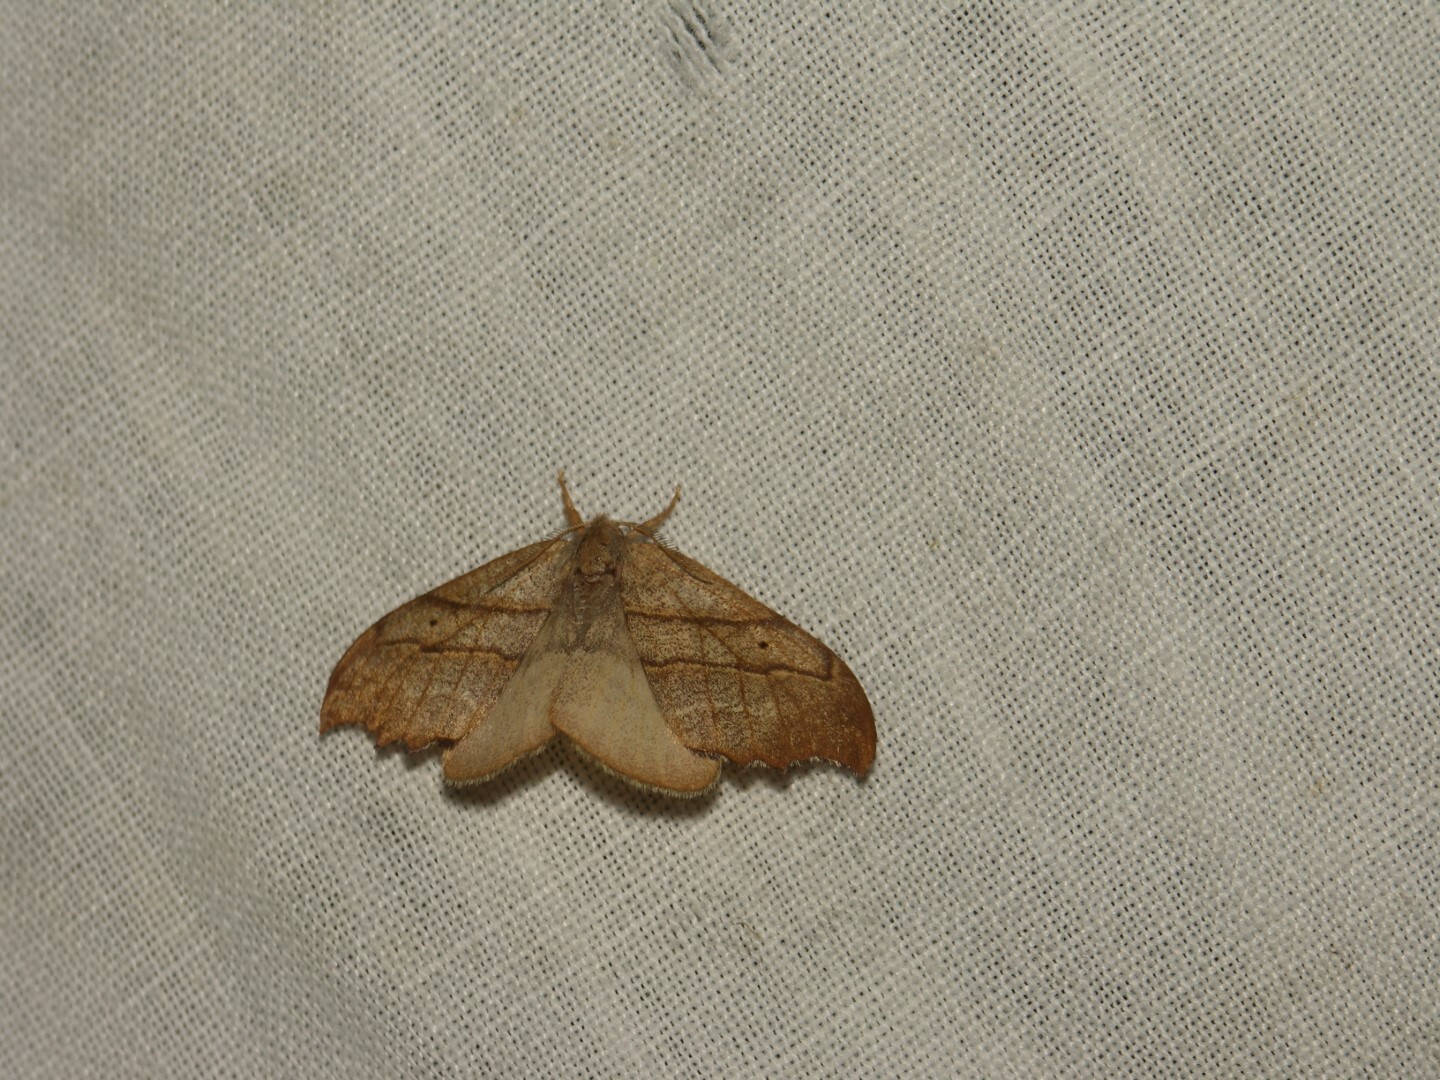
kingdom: Animalia
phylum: Arthropoda
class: Insecta
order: Lepidoptera
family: Drepanidae
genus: Falcaria
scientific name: Falcaria lacertinaria
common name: Scalloped hook-tip
